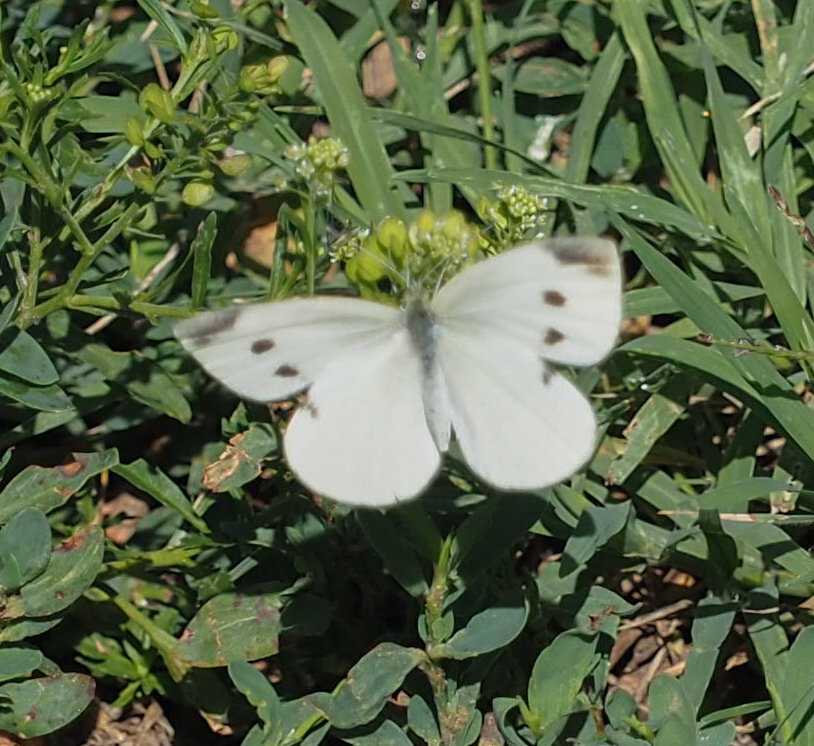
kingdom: Animalia
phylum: Arthropoda
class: Insecta
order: Lepidoptera
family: Pieridae
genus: Pieris
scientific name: Pieris rapae
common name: Small white
